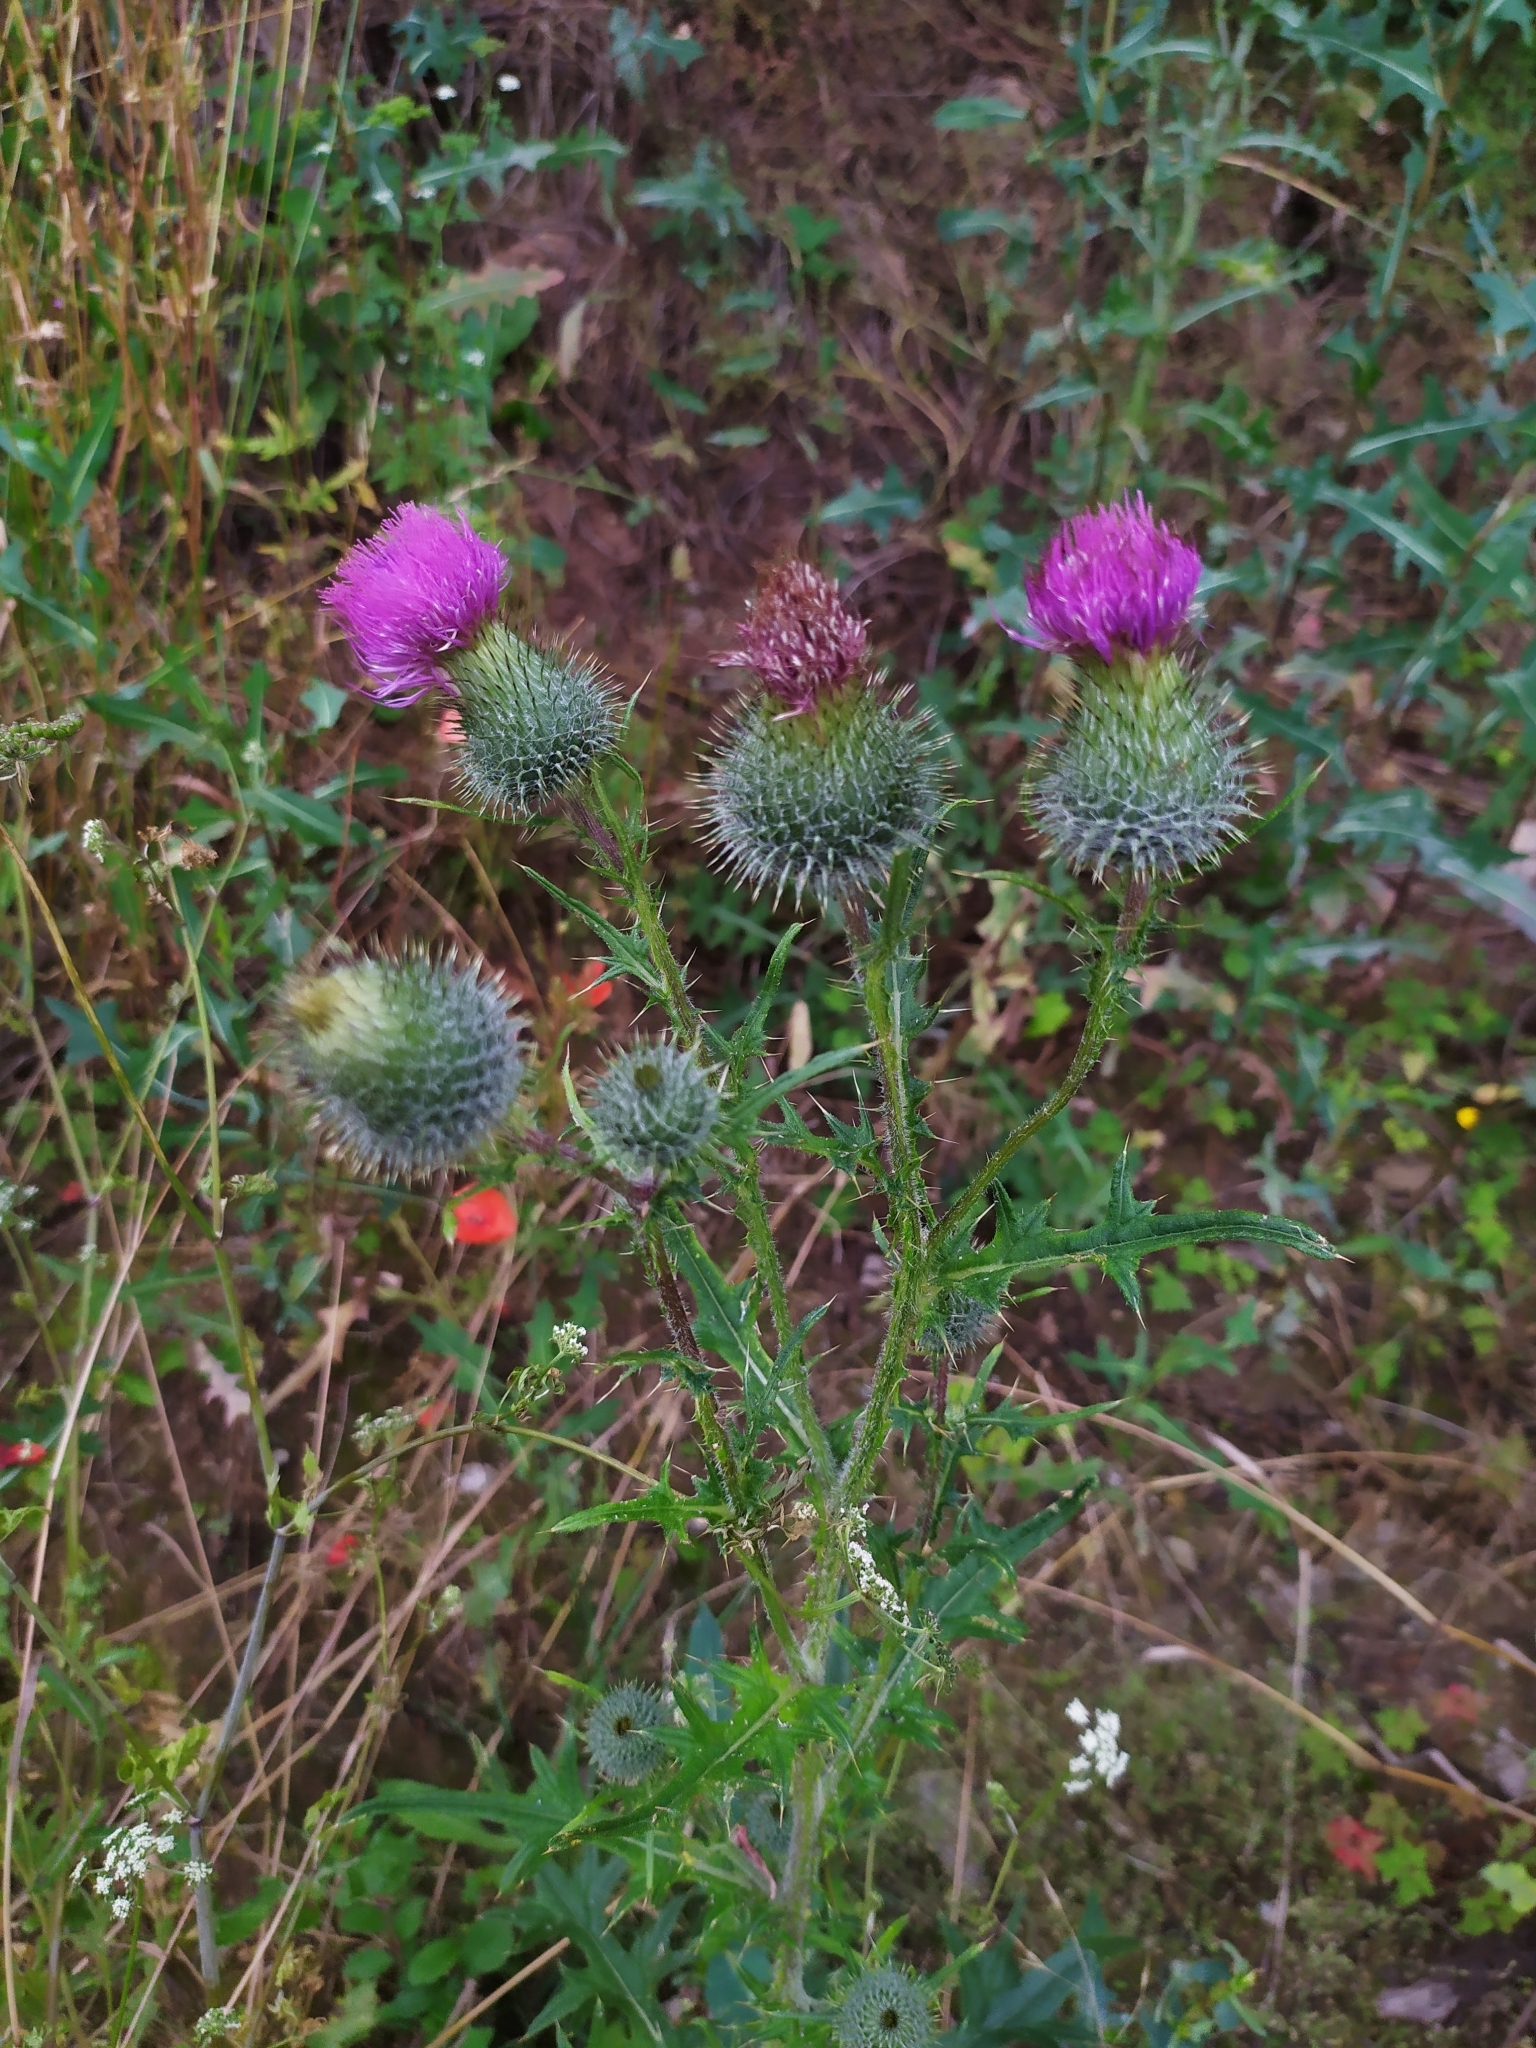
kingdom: Plantae
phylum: Tracheophyta
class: Magnoliopsida
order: Asterales
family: Asteraceae
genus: Cirsium
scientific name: Cirsium vulgare
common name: Bull thistle
